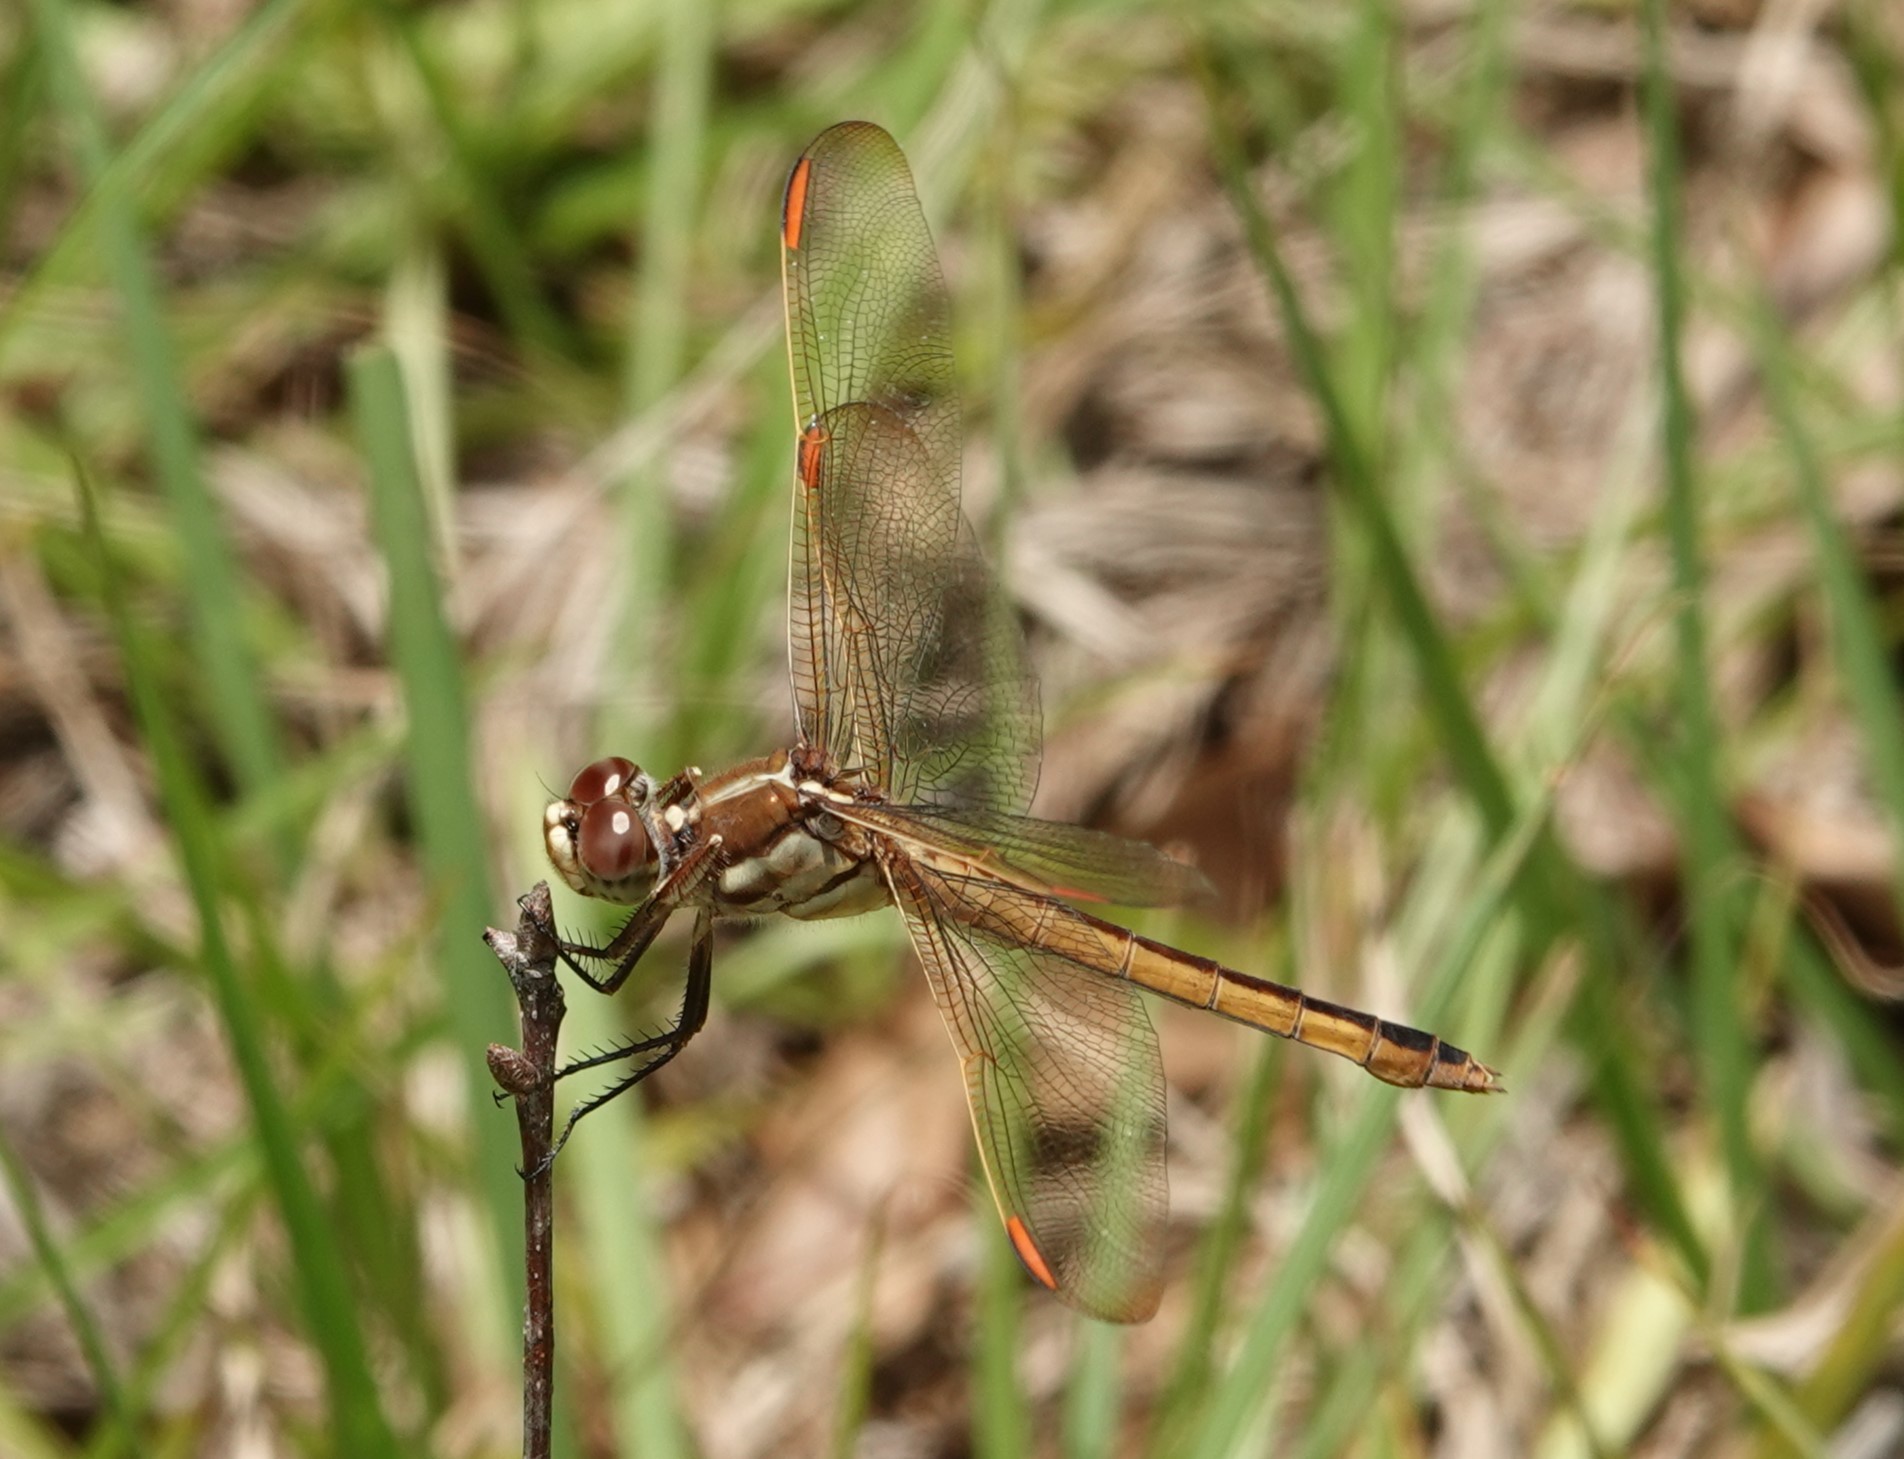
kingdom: Animalia
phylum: Arthropoda
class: Insecta
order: Odonata
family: Libellulidae
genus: Libellula
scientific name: Libellula auripennis
